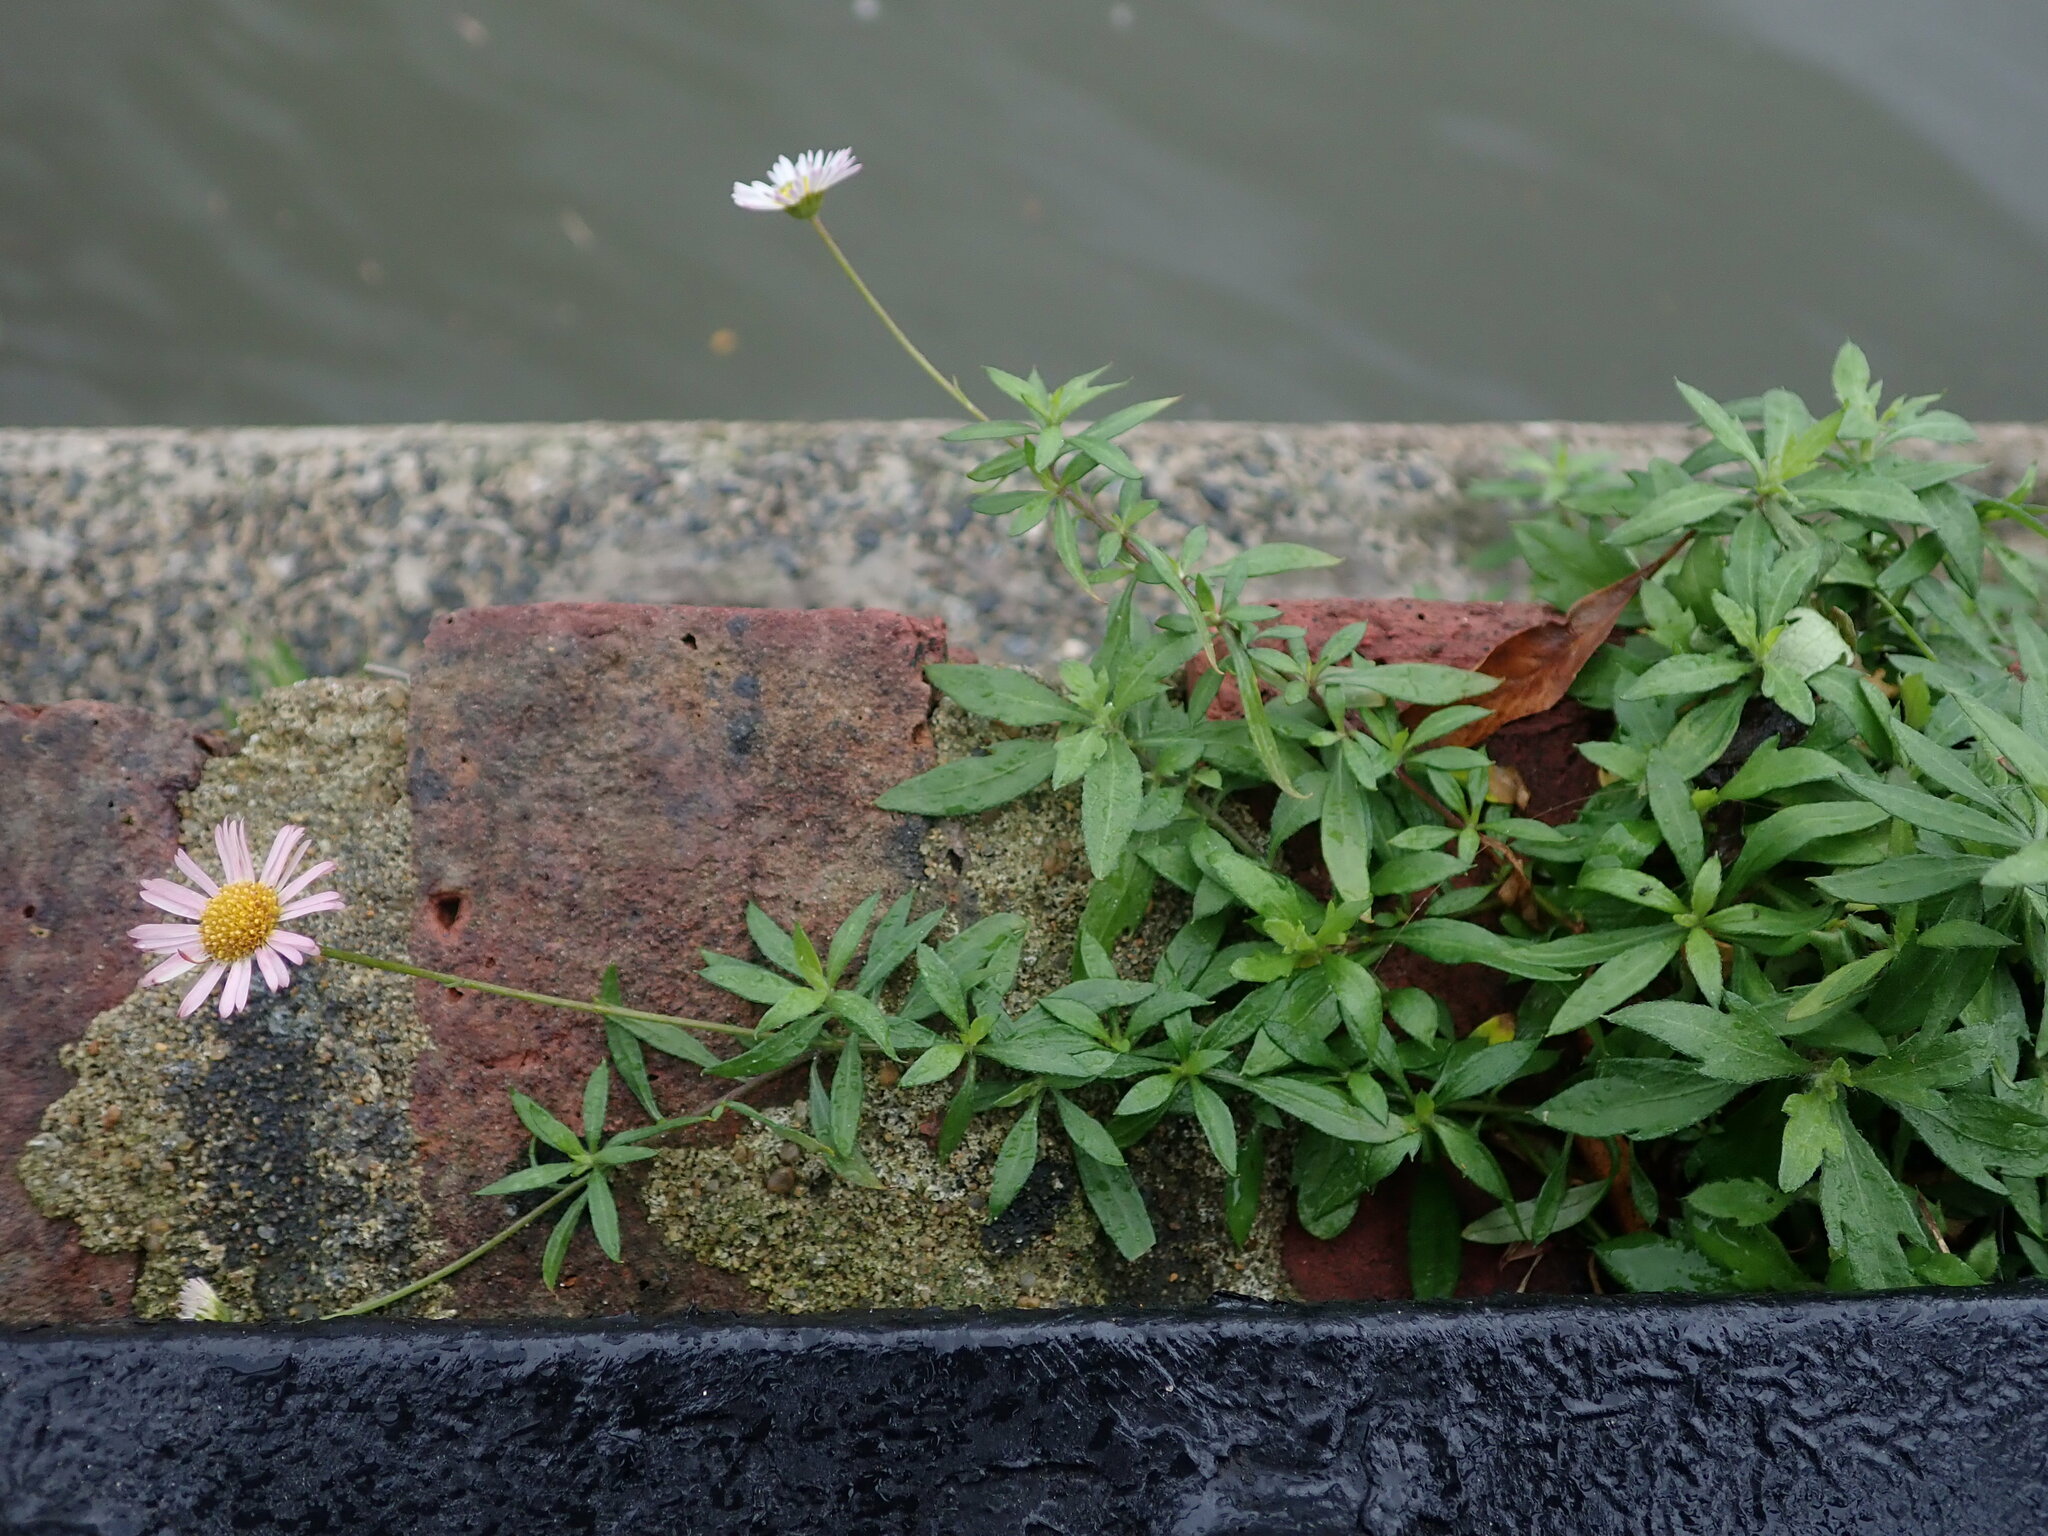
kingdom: Plantae
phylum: Tracheophyta
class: Magnoliopsida
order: Asterales
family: Asteraceae
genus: Erigeron
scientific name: Erigeron karvinskianus
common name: Mexican fleabane
